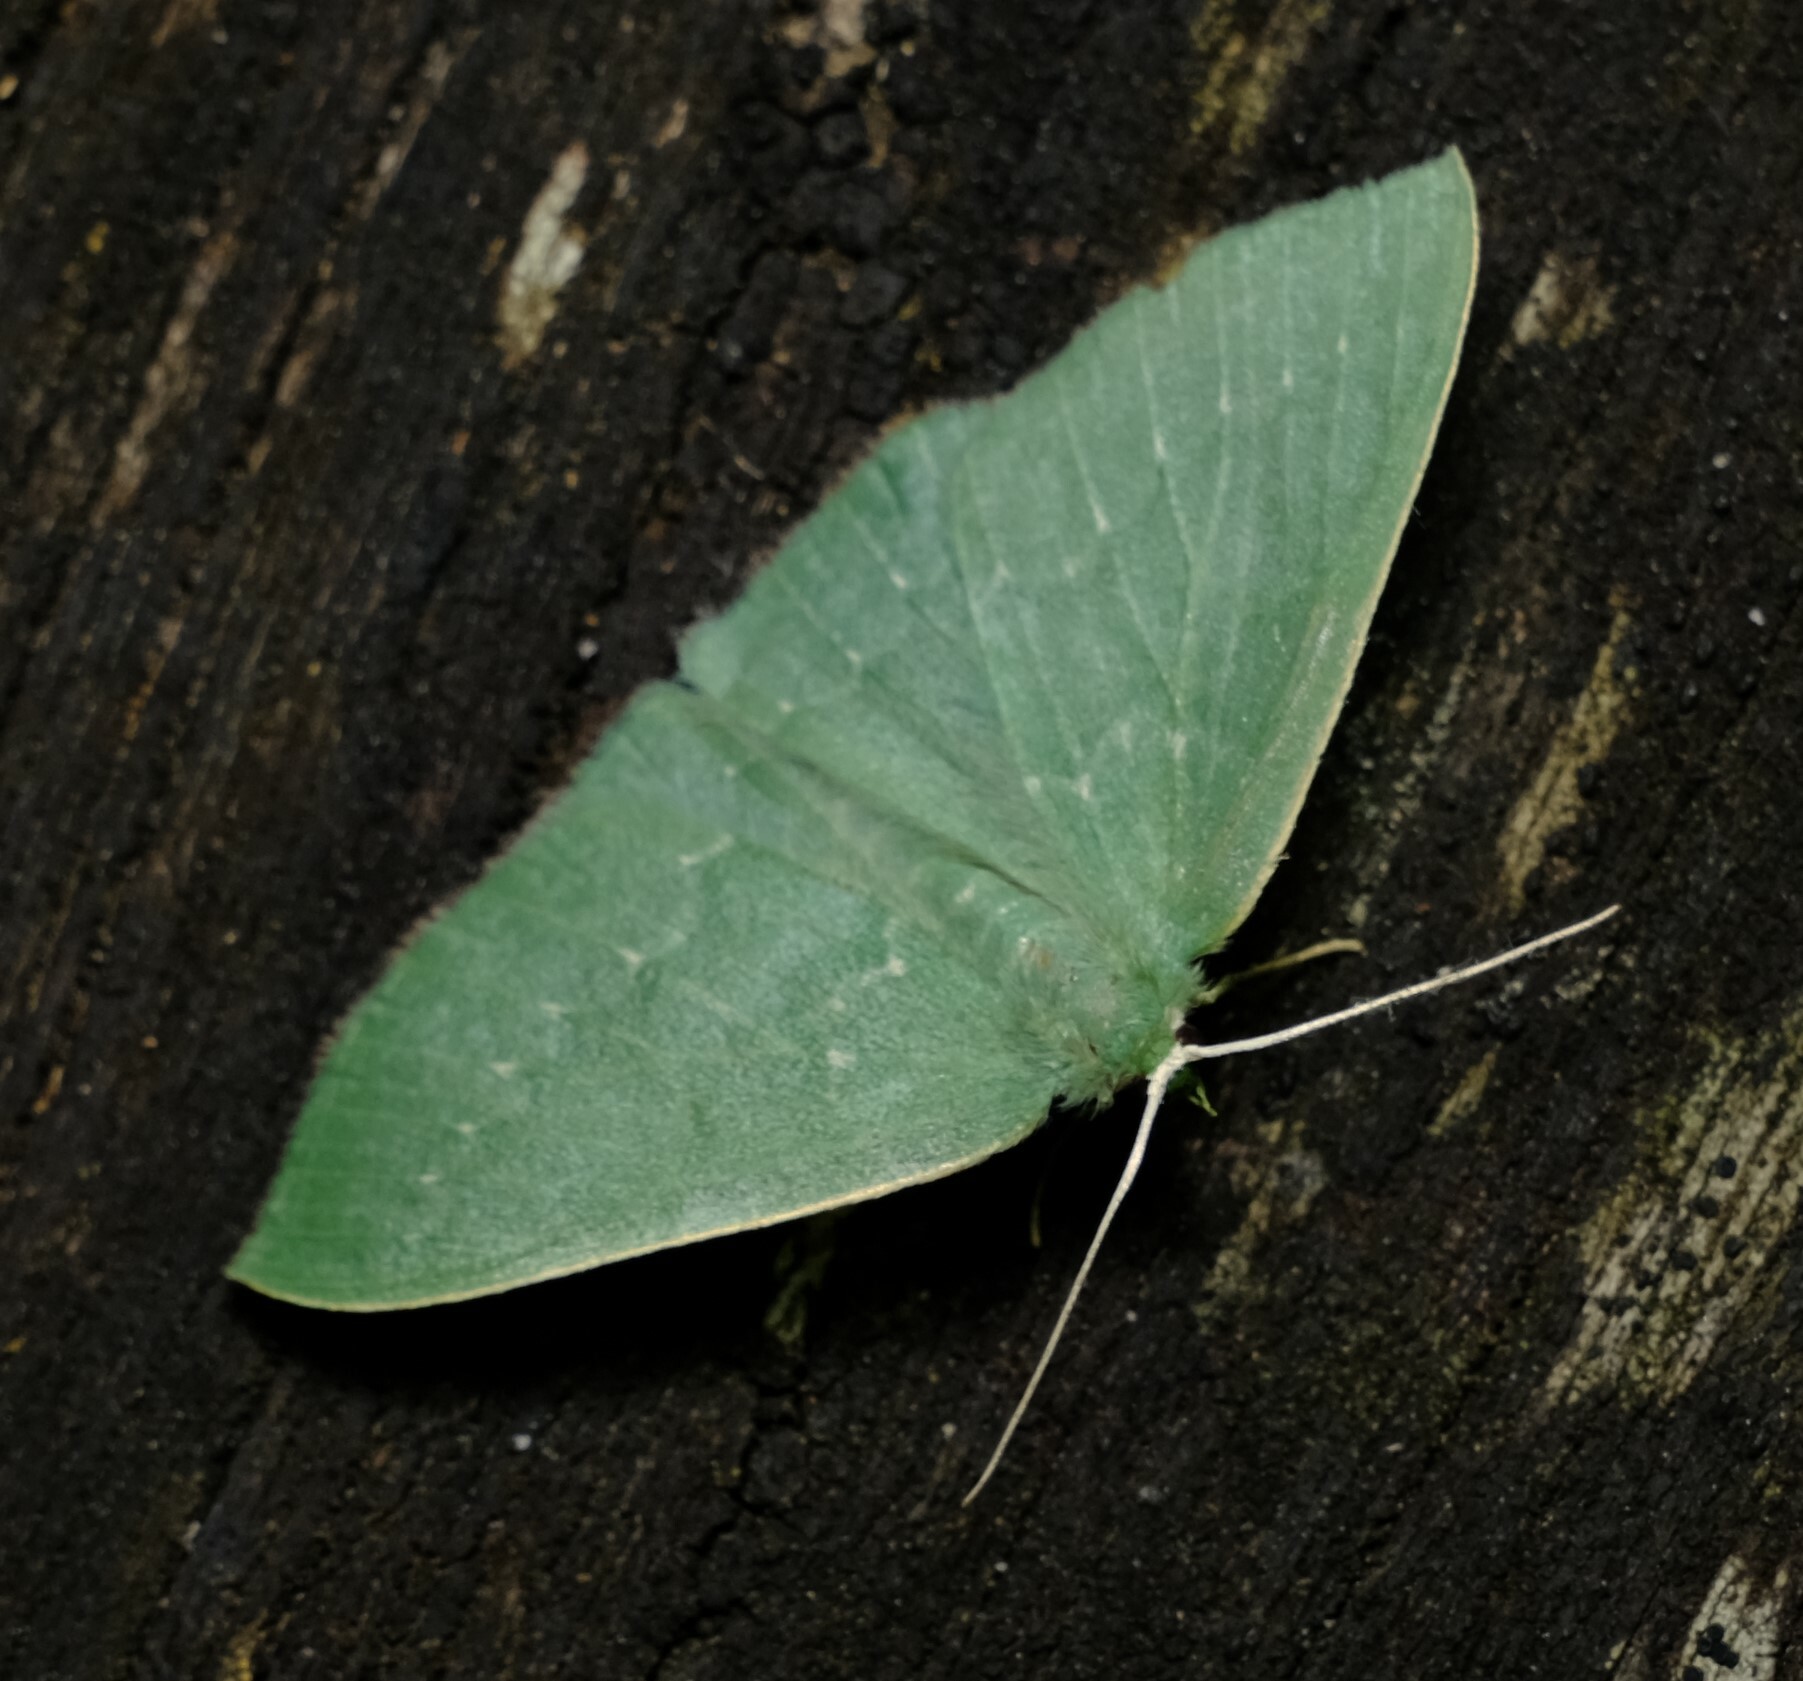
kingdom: Animalia
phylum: Arthropoda
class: Insecta
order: Lepidoptera
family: Geometridae
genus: Maxates
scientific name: Maxates calaina
